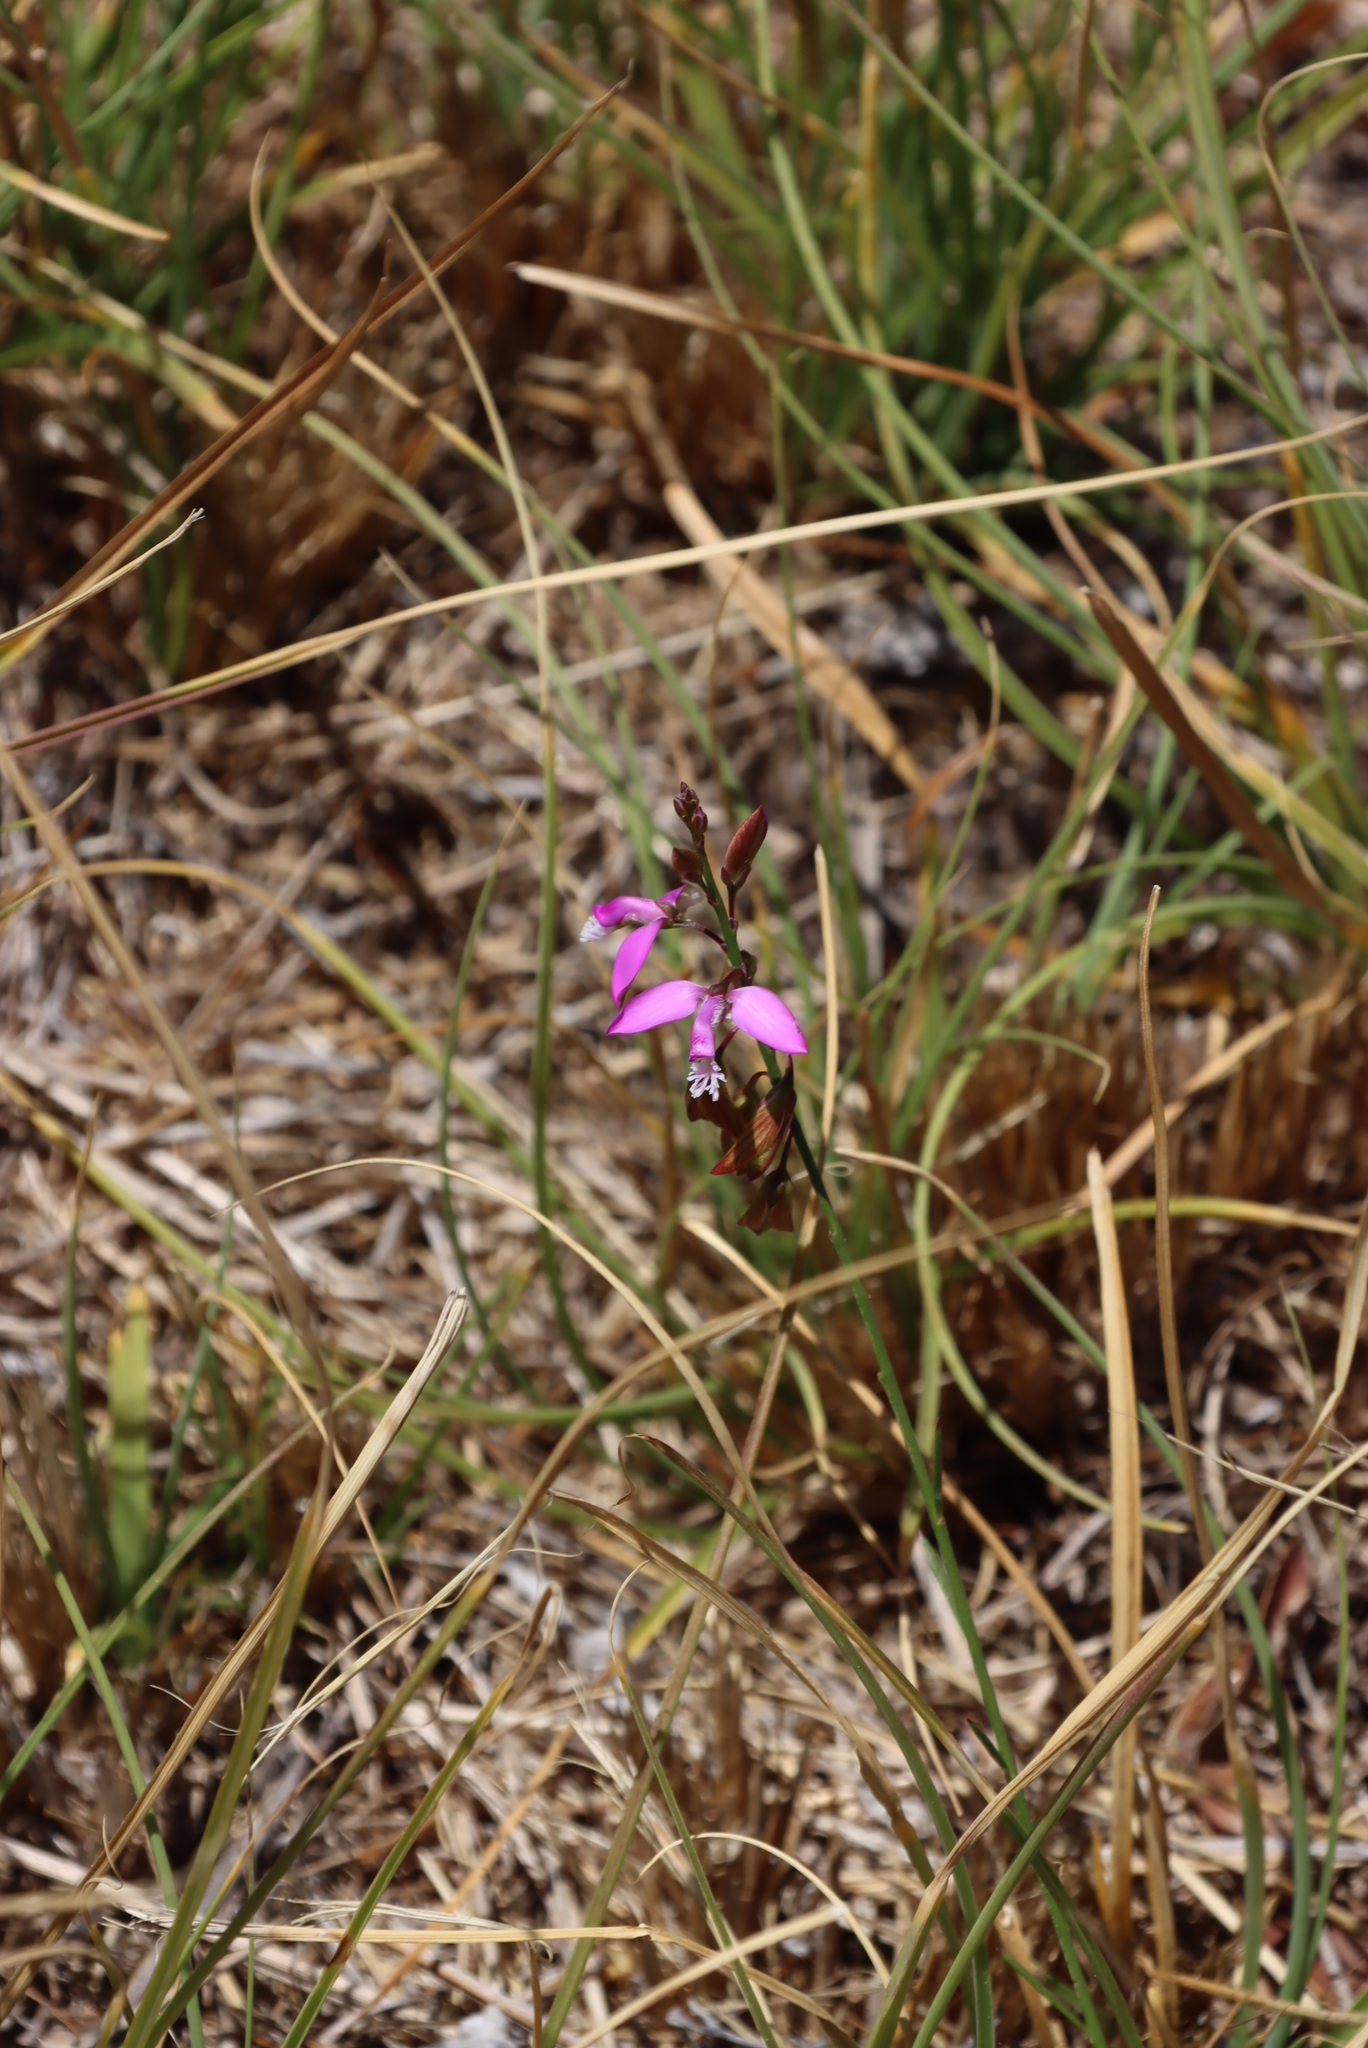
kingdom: Plantae
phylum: Tracheophyta
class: Magnoliopsida
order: Fabales
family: Polygalaceae
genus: Polygala
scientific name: Polygala garcini
